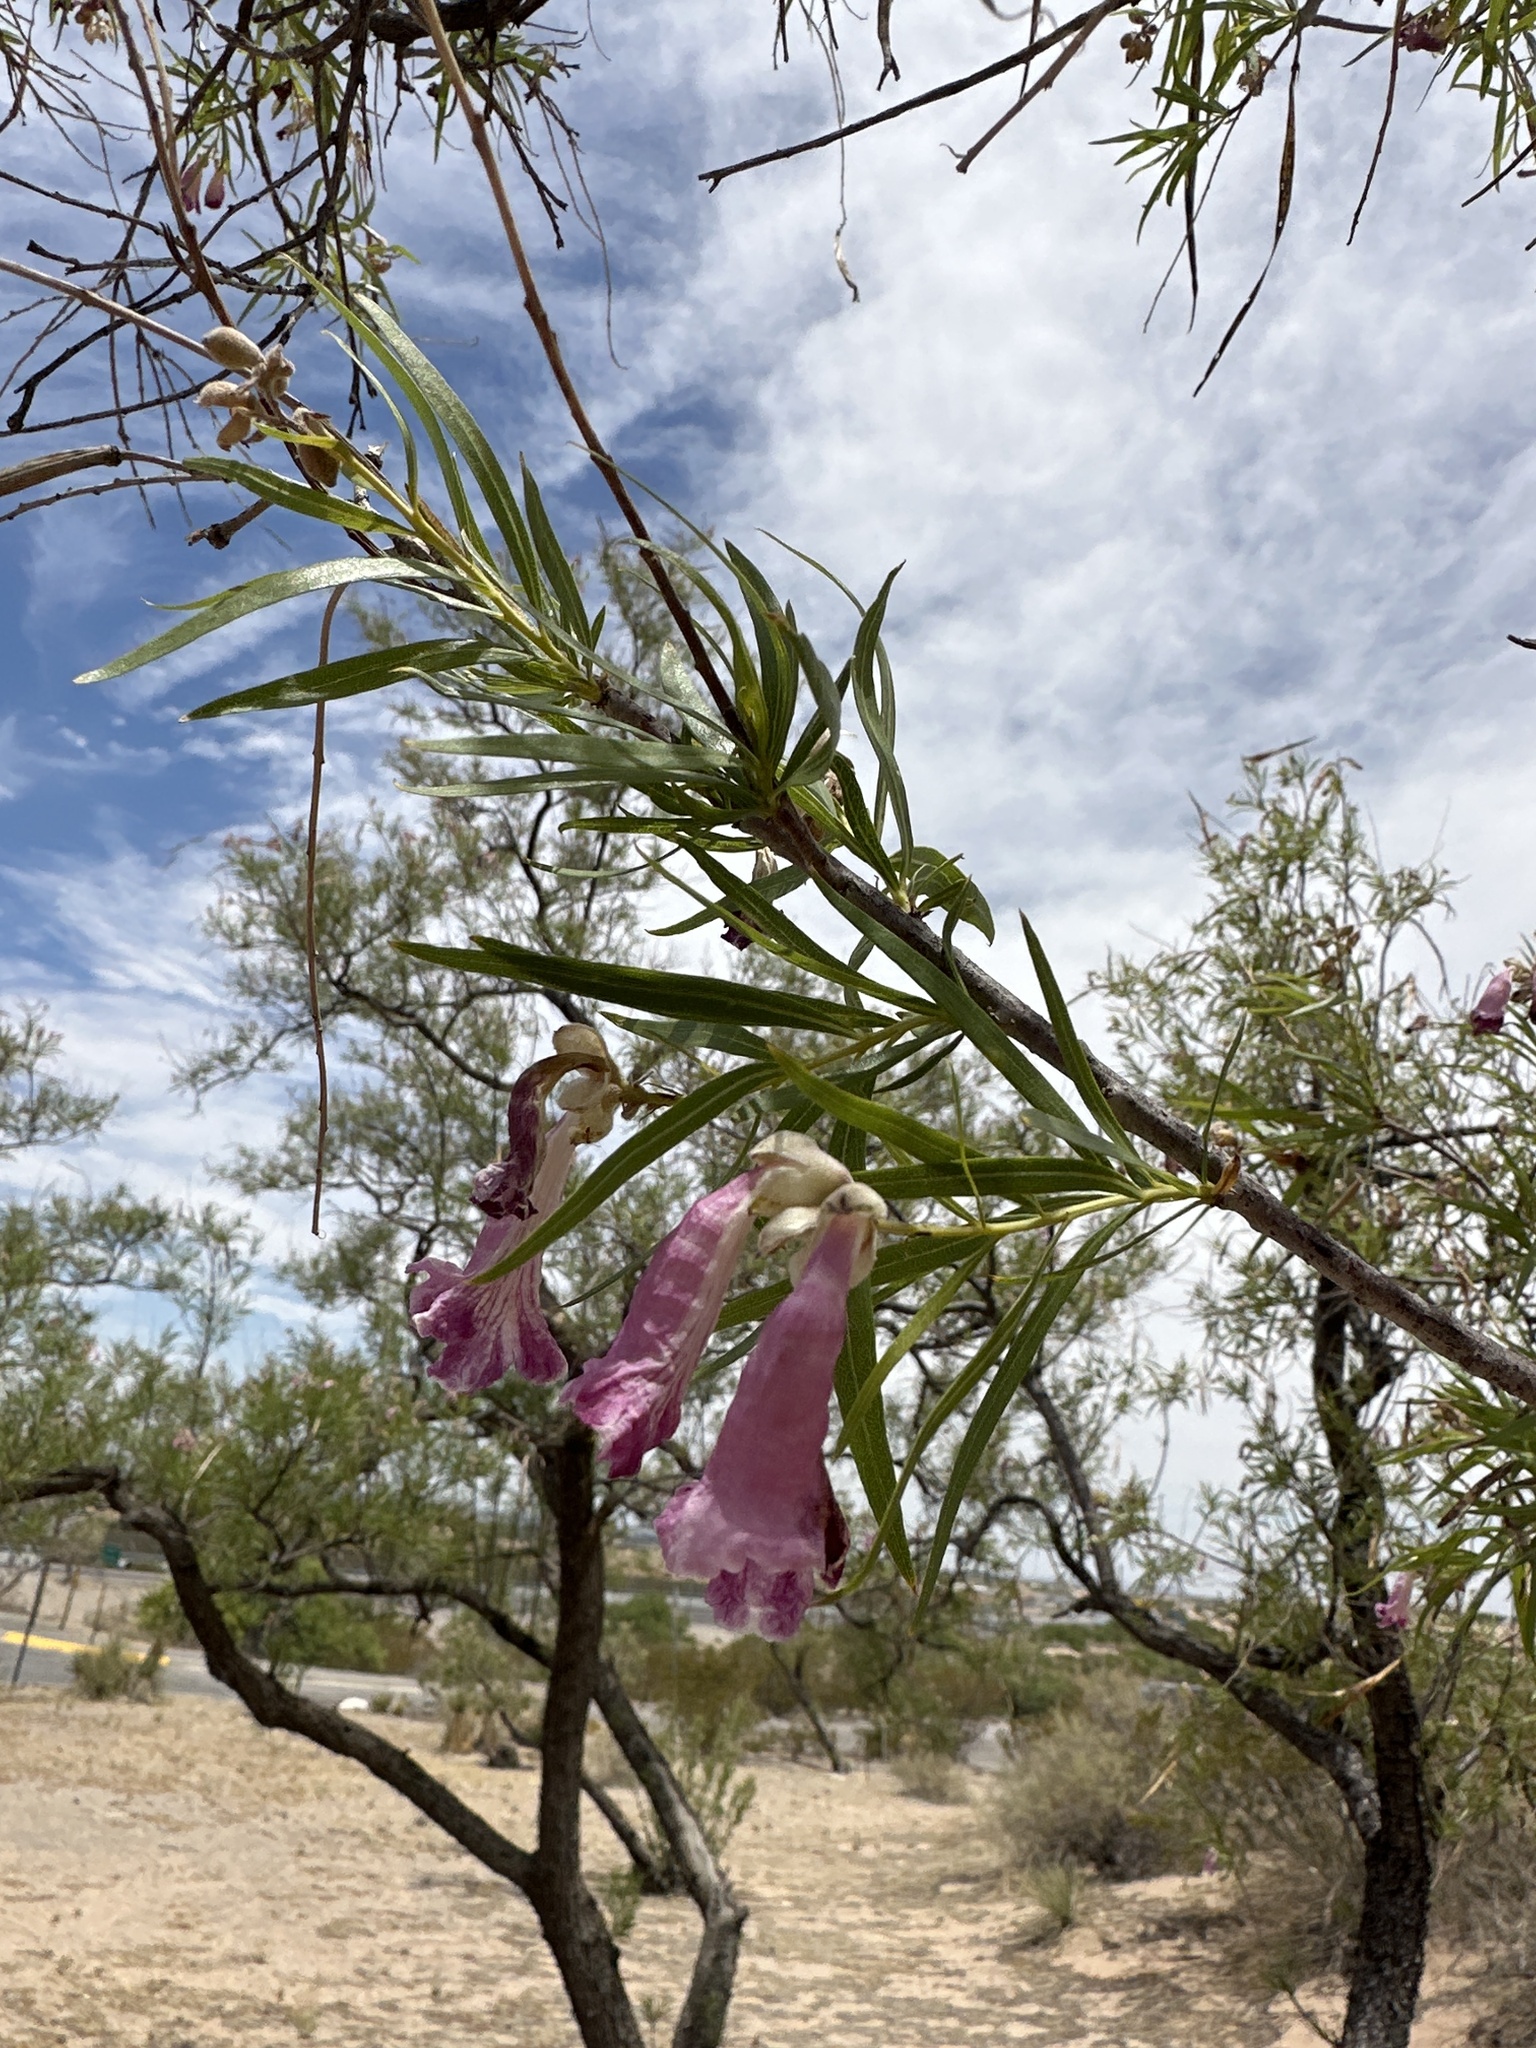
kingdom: Plantae
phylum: Tracheophyta
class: Magnoliopsida
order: Lamiales
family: Bignoniaceae
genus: Chilopsis
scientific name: Chilopsis linearis
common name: Desert-willow
